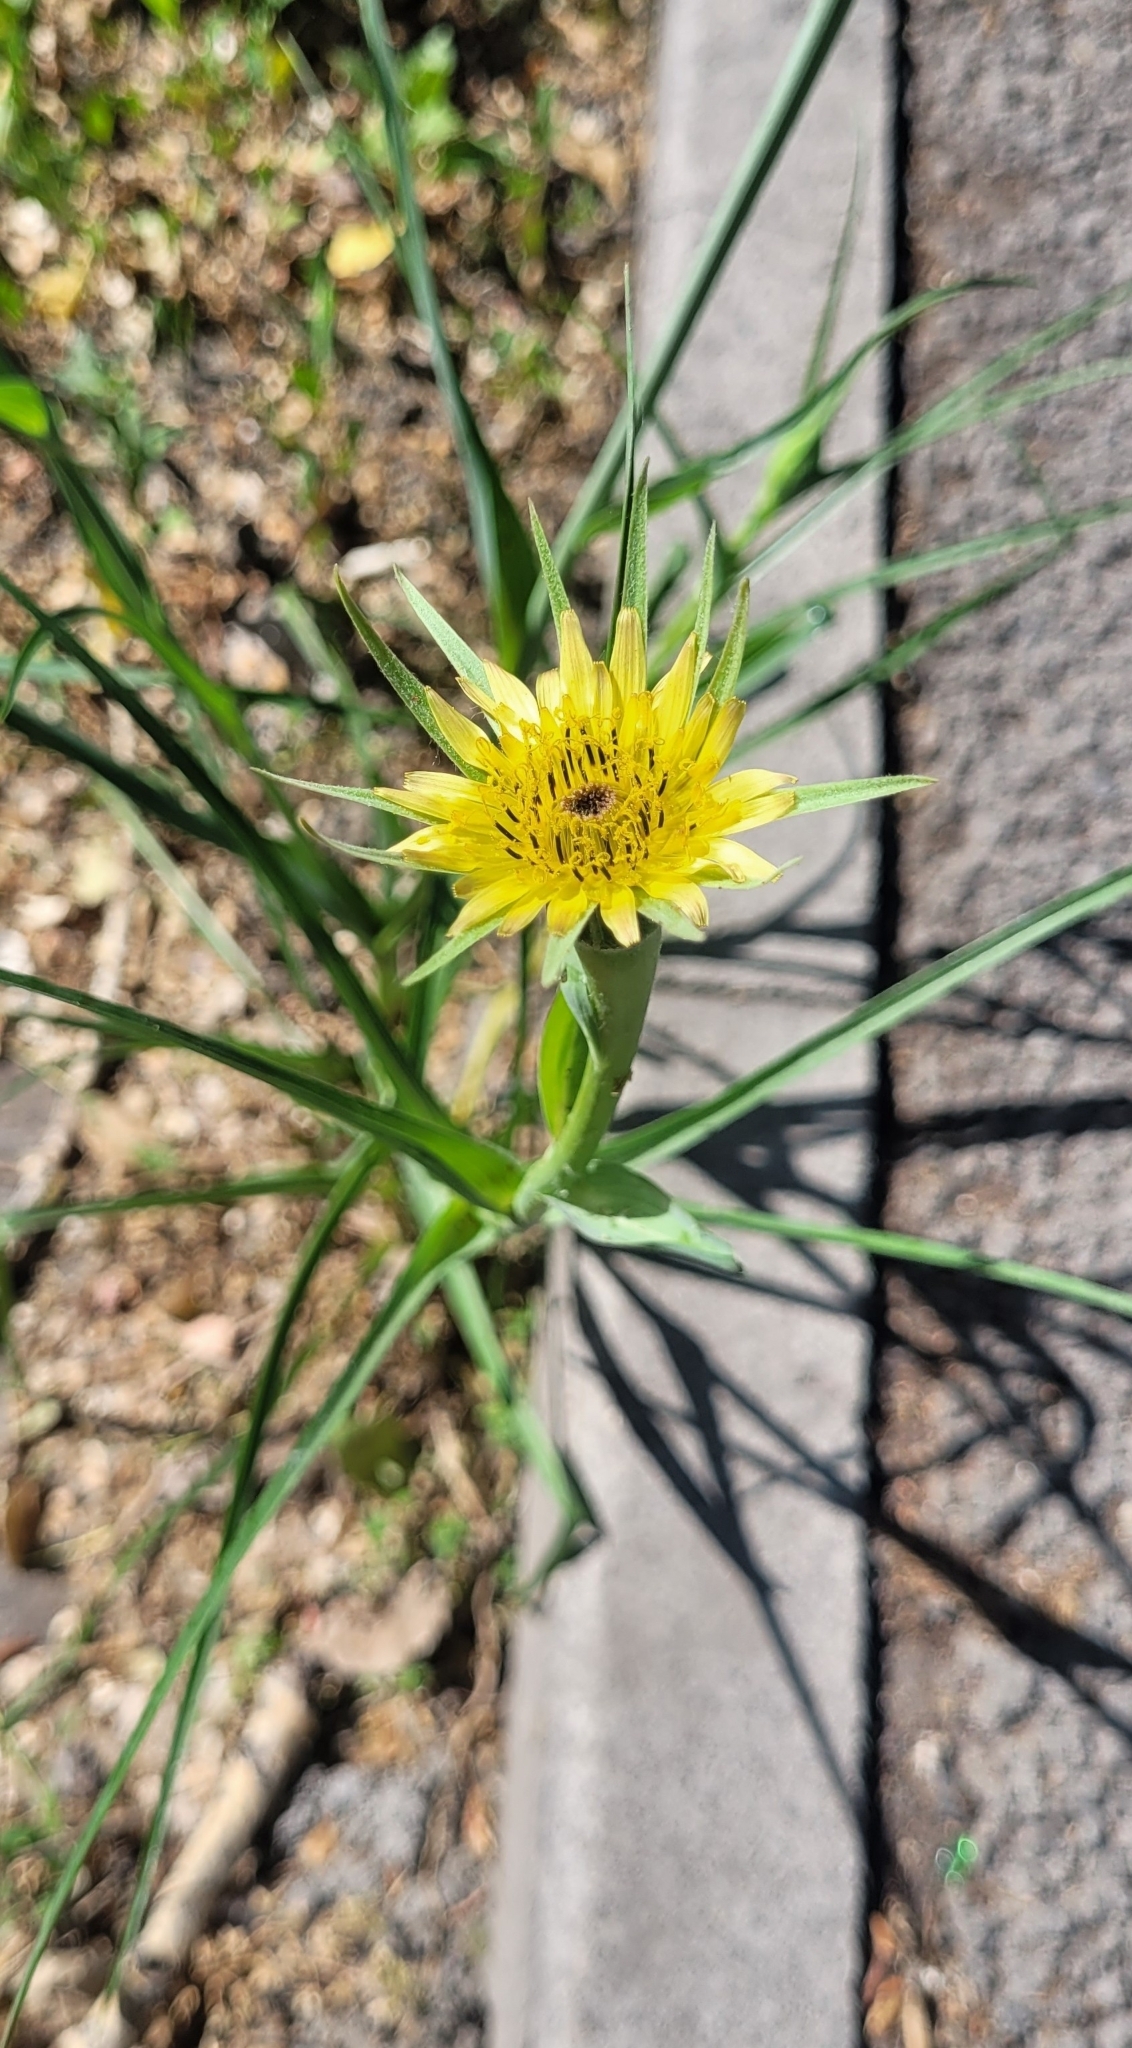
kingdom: Plantae
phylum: Tracheophyta
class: Magnoliopsida
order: Asterales
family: Asteraceae
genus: Tragopogon
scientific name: Tragopogon dubius
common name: Yellow salsify
